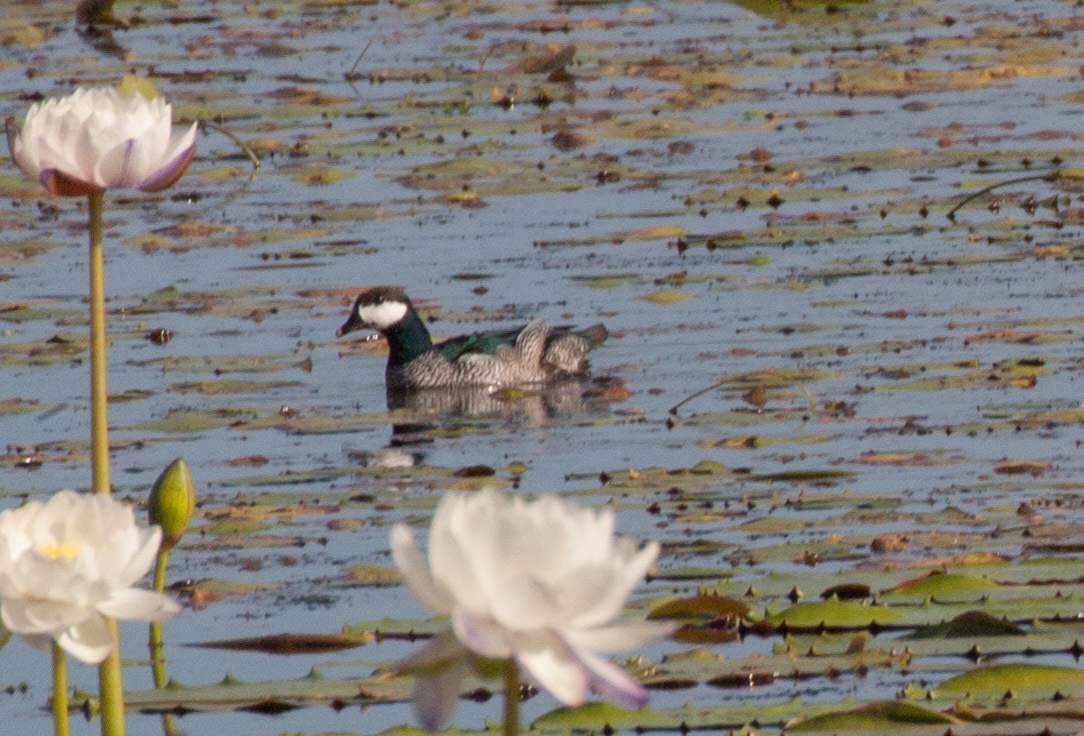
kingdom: Animalia
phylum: Chordata
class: Aves
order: Anseriformes
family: Anatidae
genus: Nettapus
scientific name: Nettapus pulchellus
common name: Green pygmy-goose
